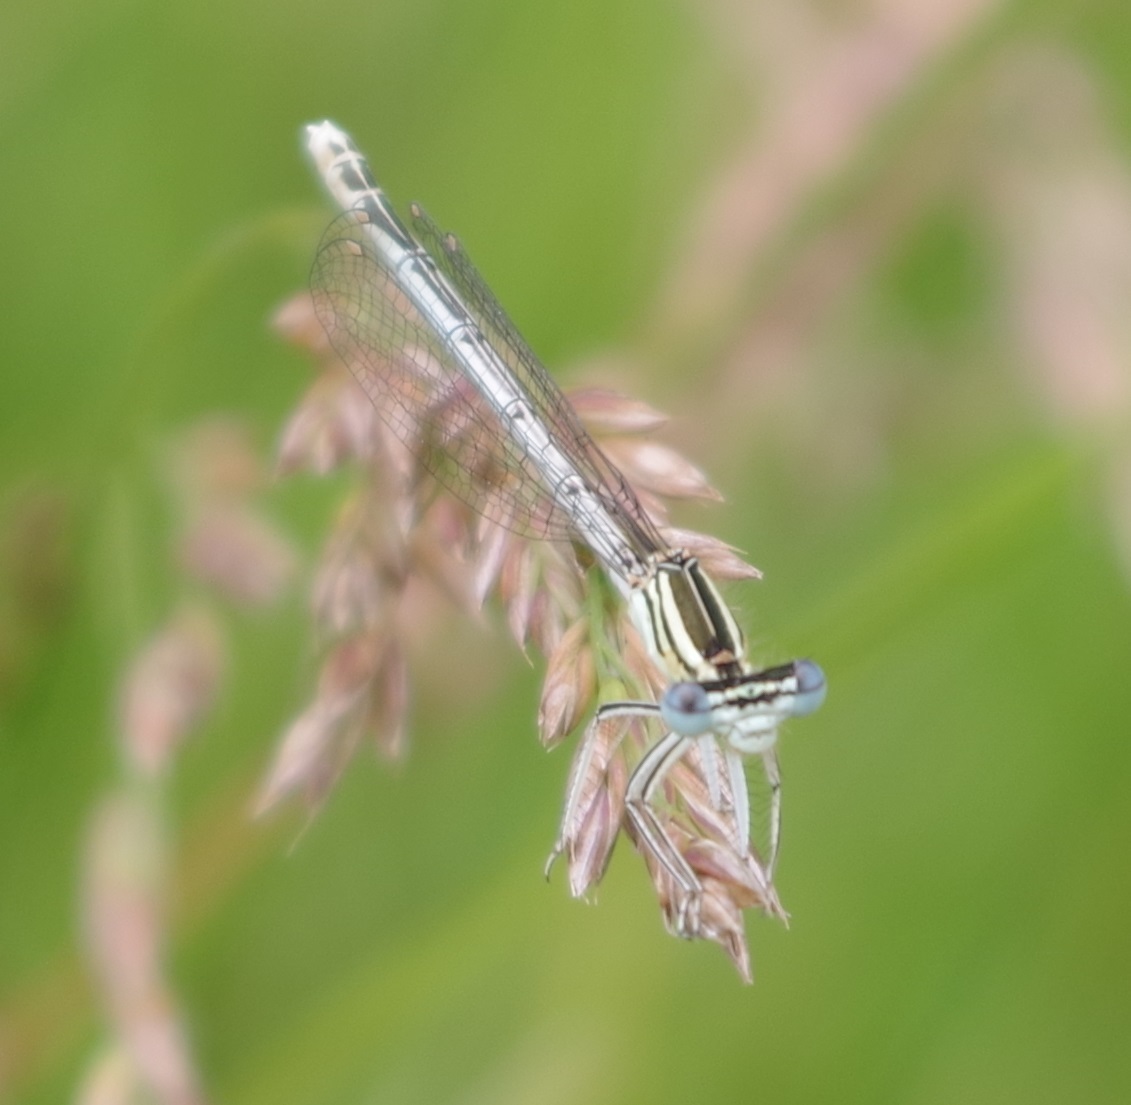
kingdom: Animalia
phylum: Arthropoda
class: Insecta
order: Odonata
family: Platycnemididae
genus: Platycnemis
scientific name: Platycnemis pennipes
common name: White-legged damselfly
